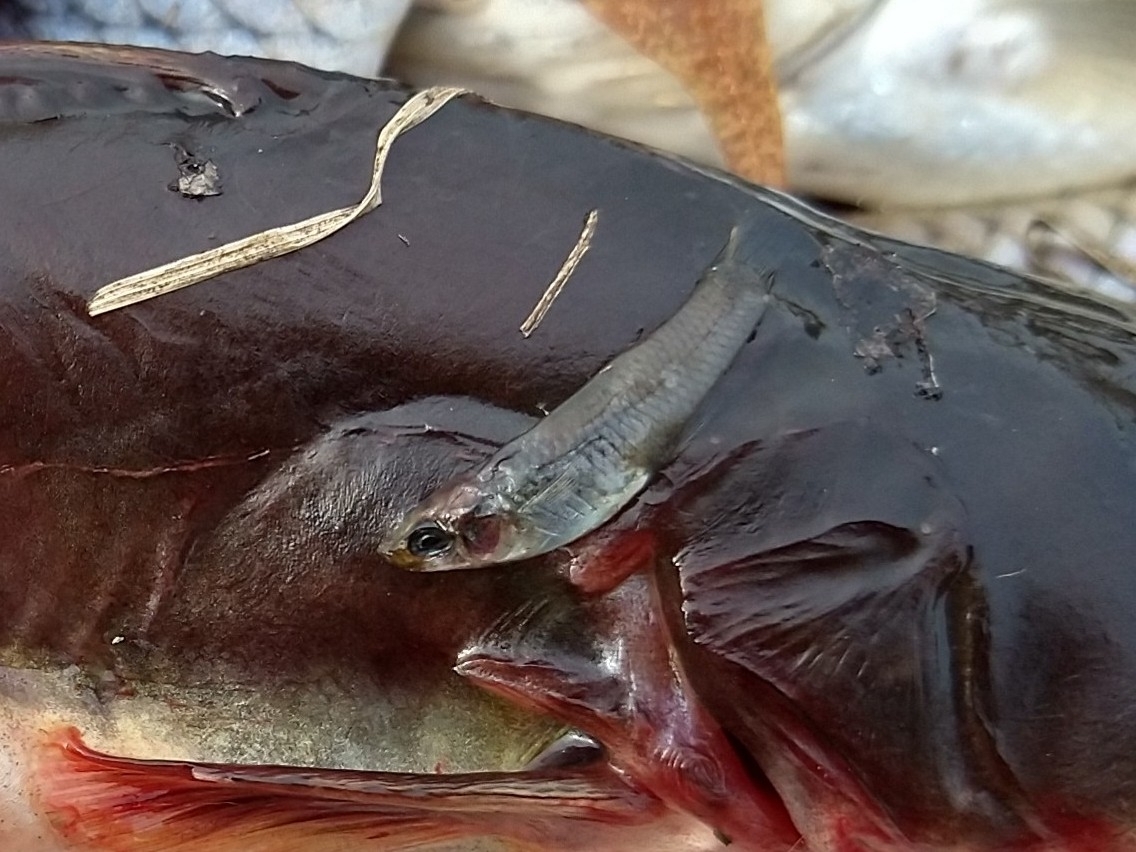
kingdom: Animalia
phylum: Chordata
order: Cyprinodontiformes
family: Poeciliidae
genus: Gambusia
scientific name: Gambusia affinis
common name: Mosquitofish
